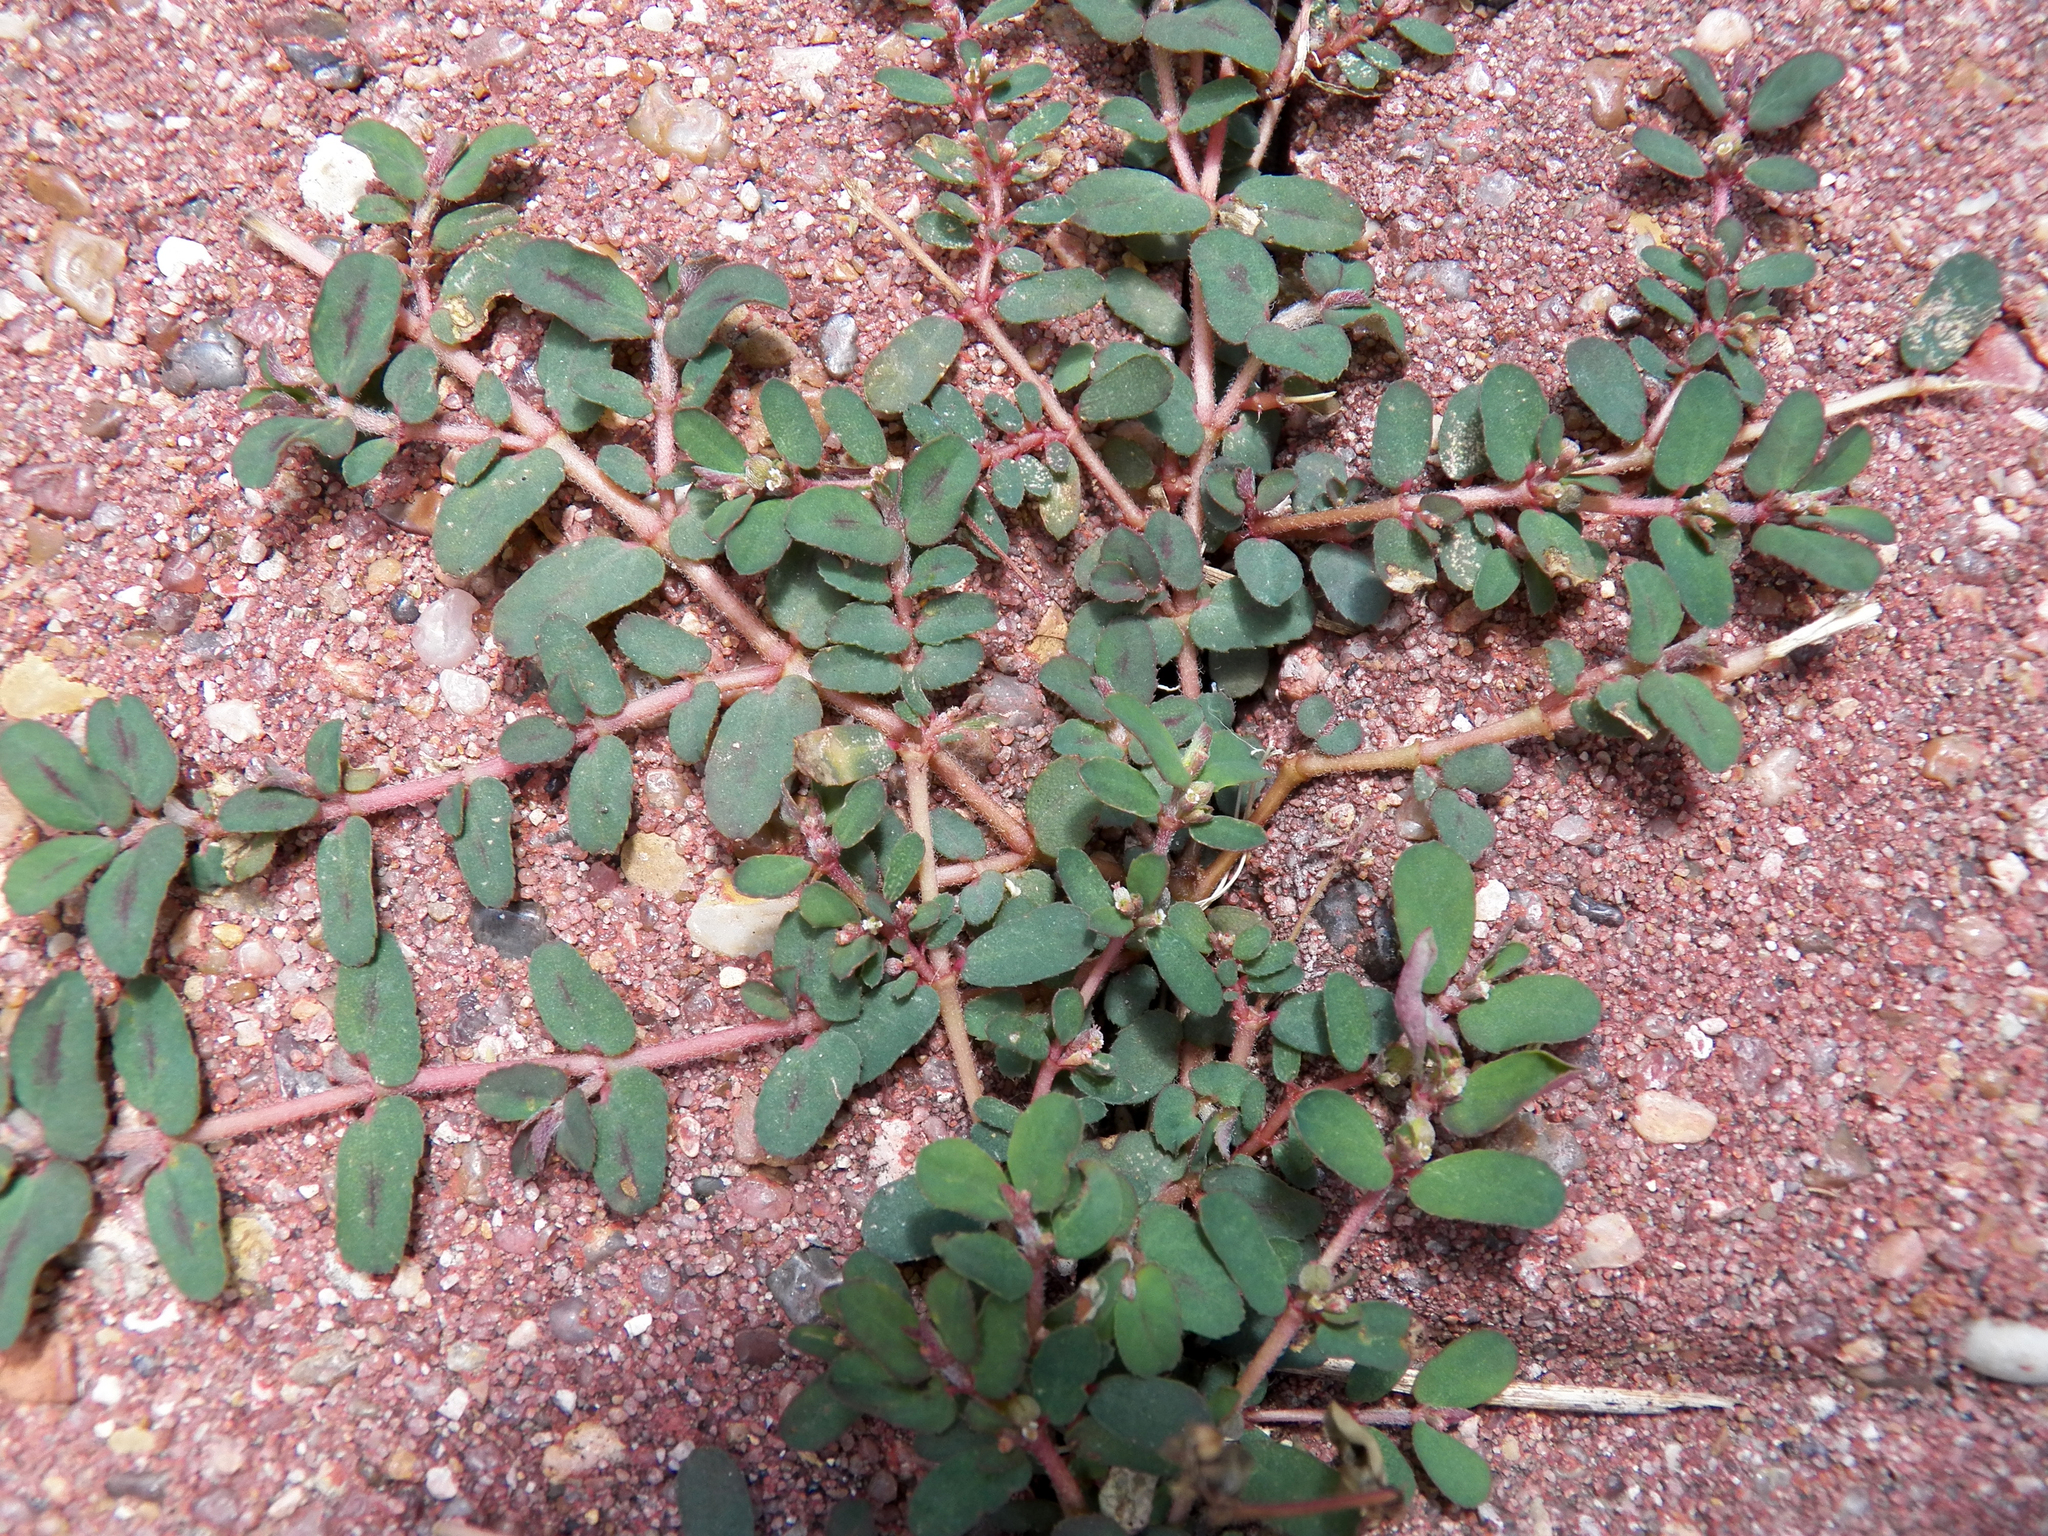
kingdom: Plantae
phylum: Tracheophyta
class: Magnoliopsida
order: Malpighiales
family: Euphorbiaceae
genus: Euphorbia
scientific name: Euphorbia maculata
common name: Spotted spurge
